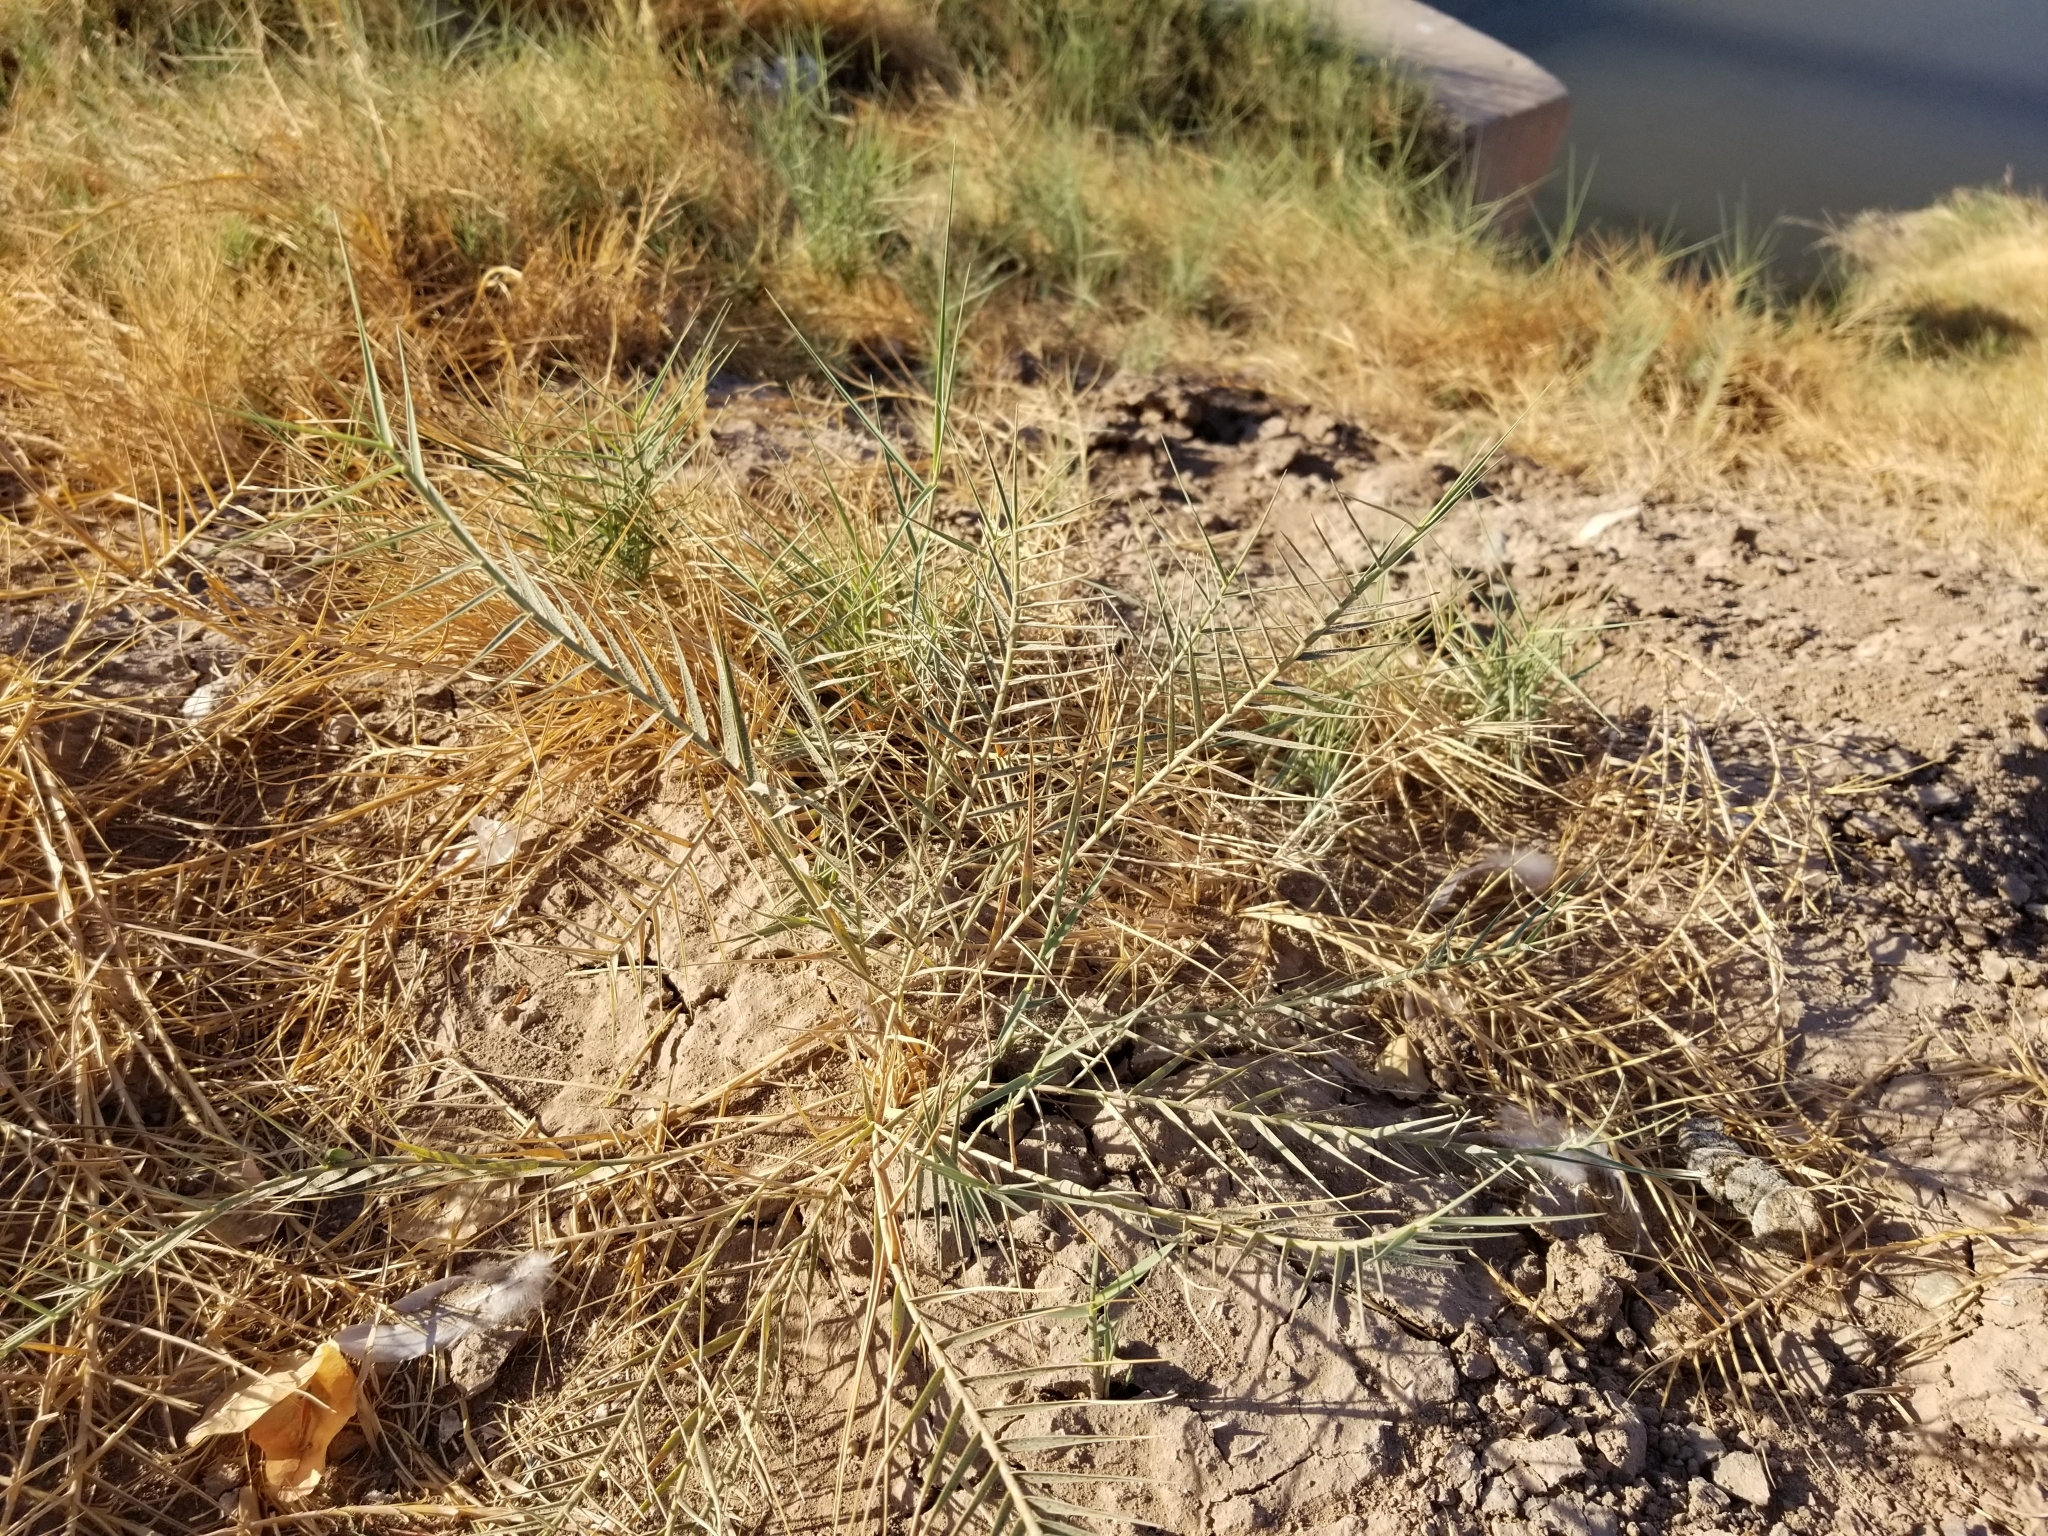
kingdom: Plantae
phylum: Tracheophyta
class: Liliopsida
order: Poales
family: Poaceae
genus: Distichlis
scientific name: Distichlis spicata
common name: Saltgrass
